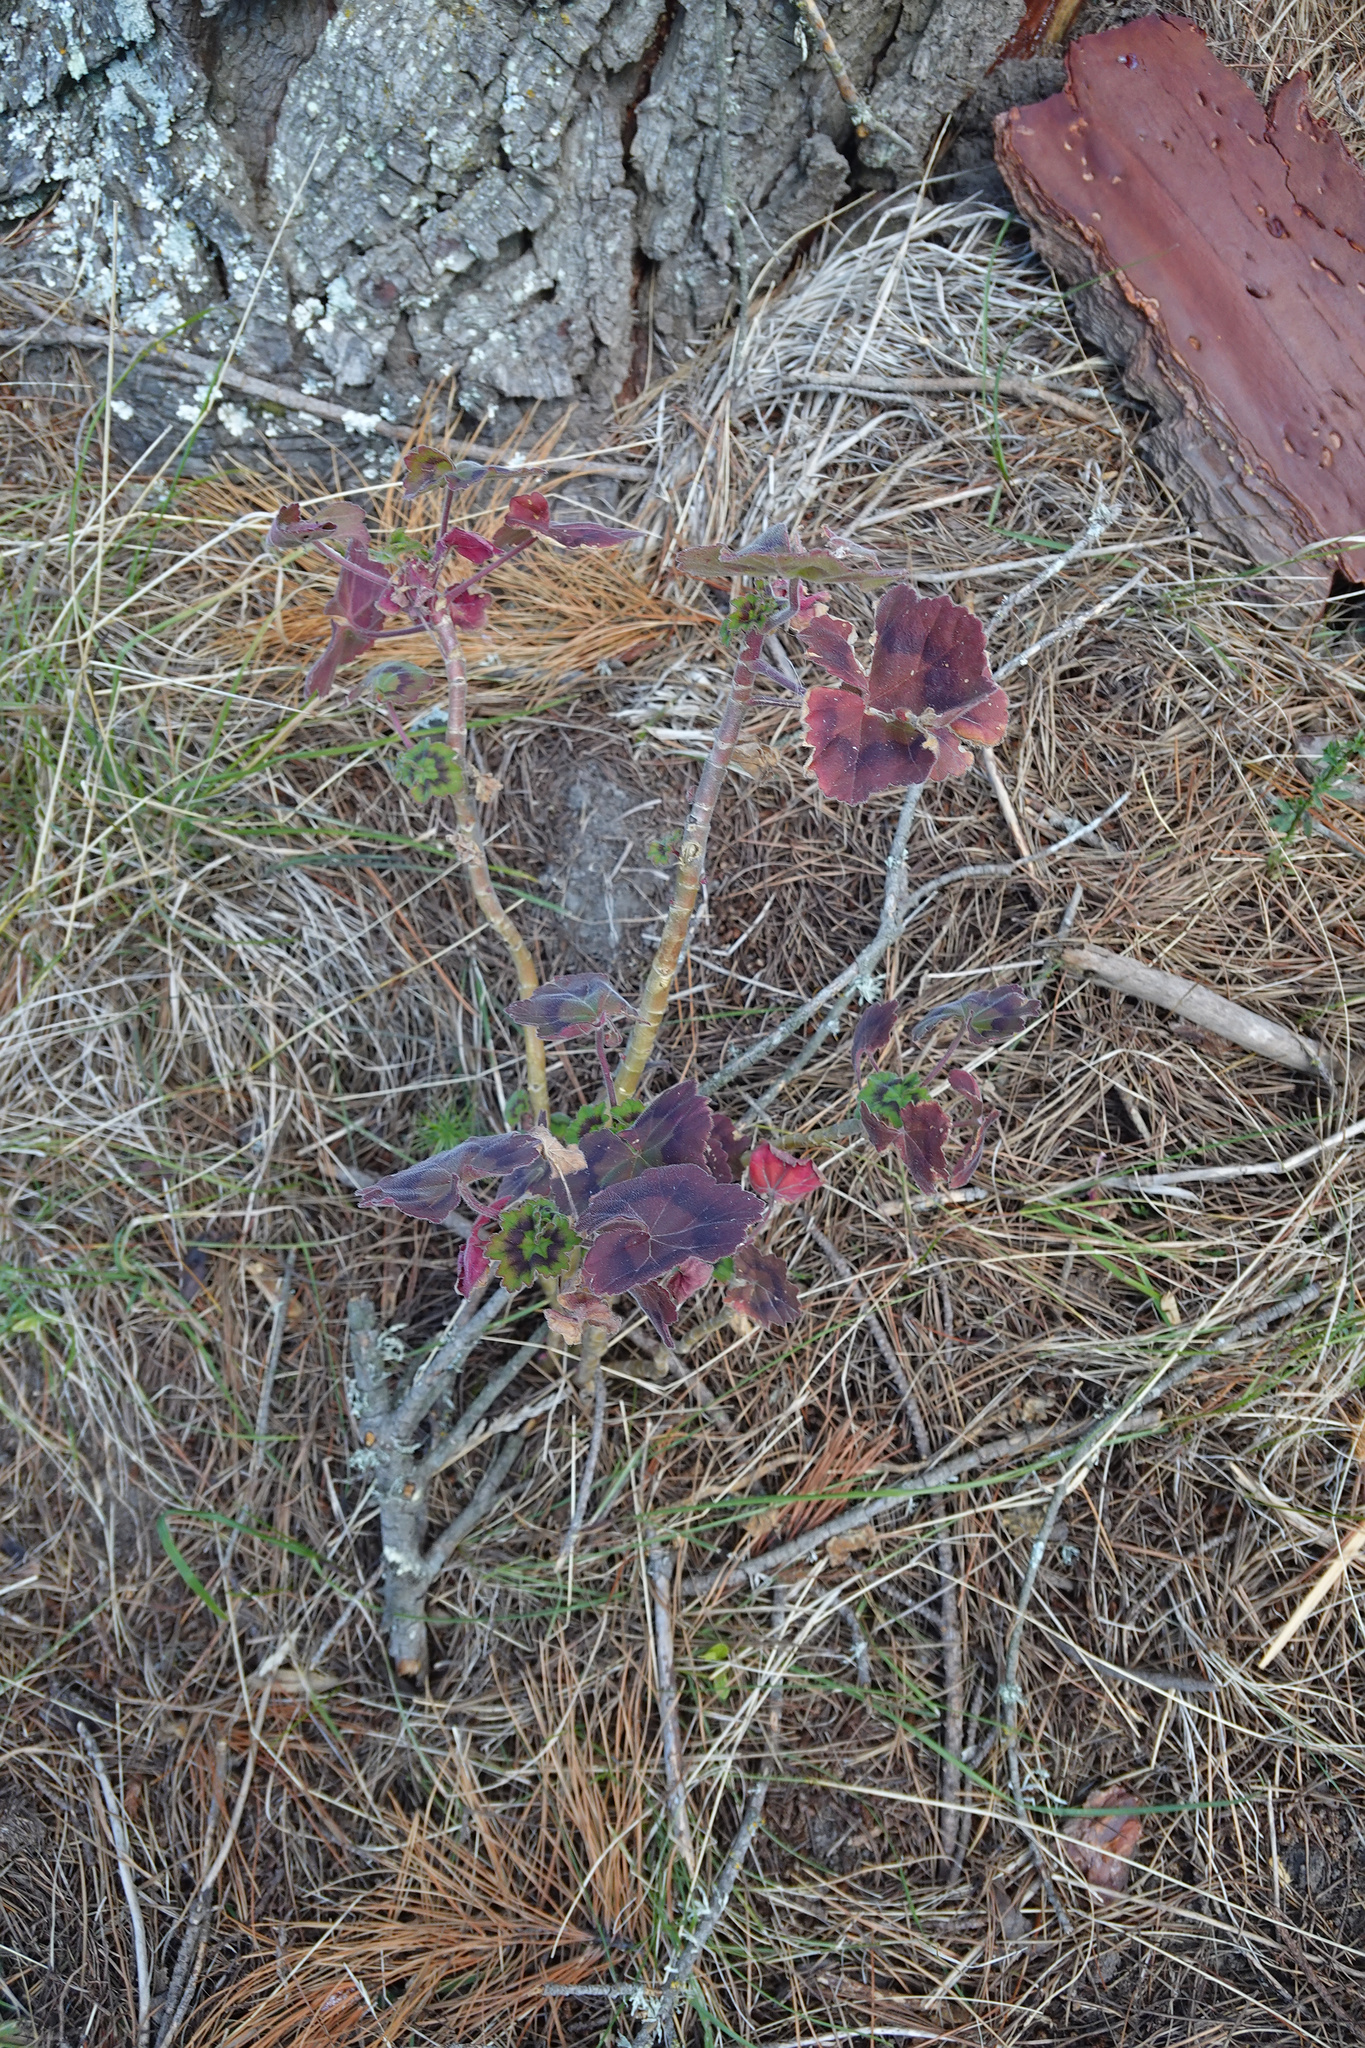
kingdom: Plantae
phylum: Tracheophyta
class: Magnoliopsida
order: Geraniales
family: Geraniaceae
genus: Pelargonium
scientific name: Pelargonium hybridum
